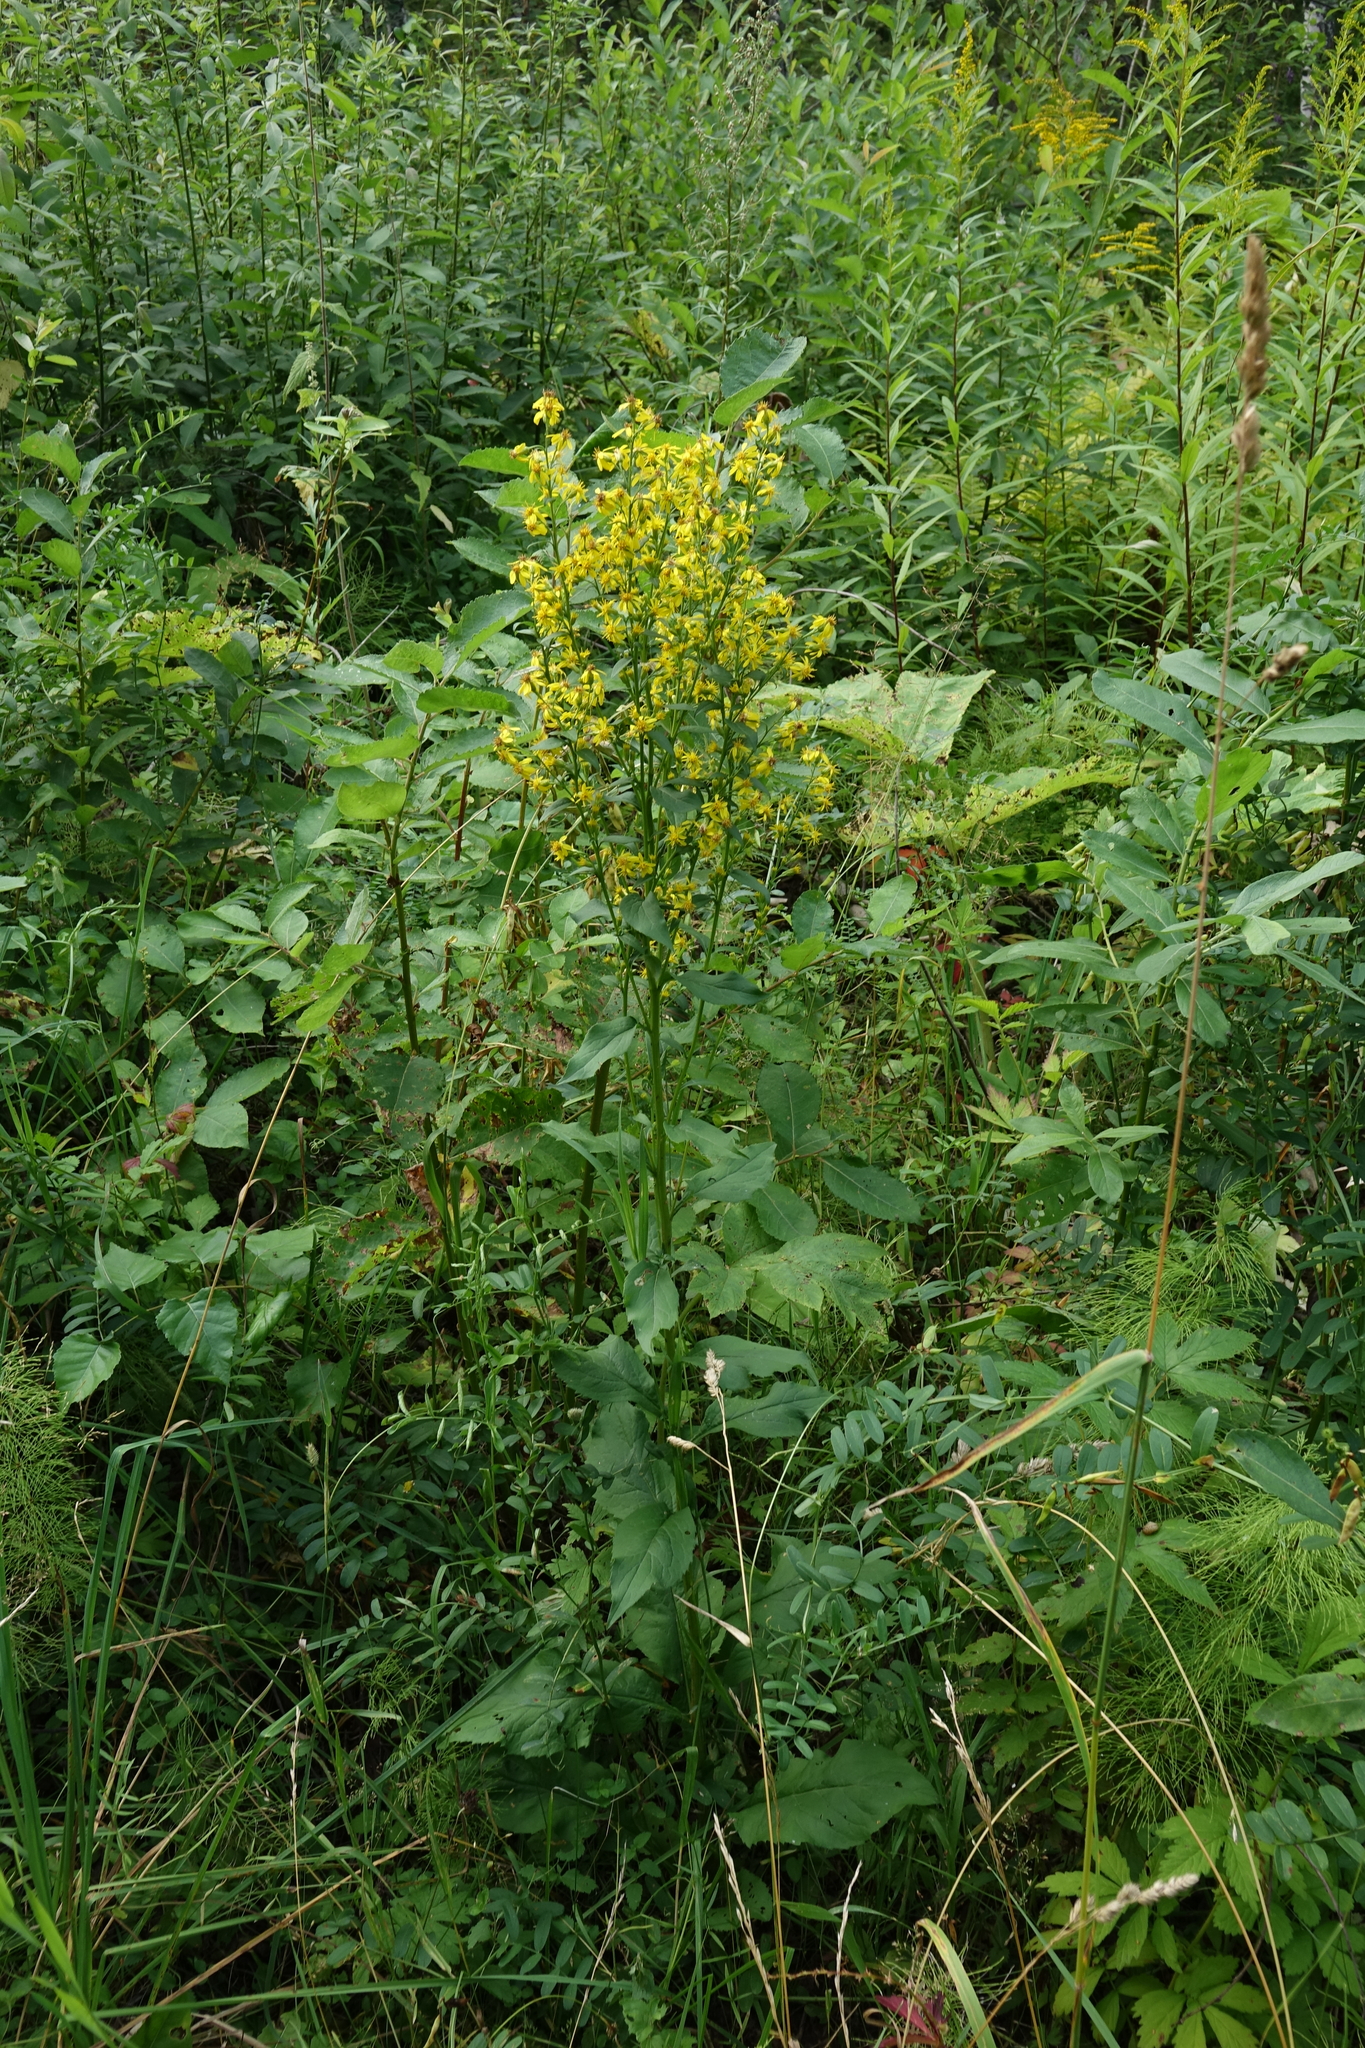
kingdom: Plantae
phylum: Tracheophyta
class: Magnoliopsida
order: Asterales
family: Asteraceae
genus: Solidago
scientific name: Solidago virgaurea
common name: Goldenrod
